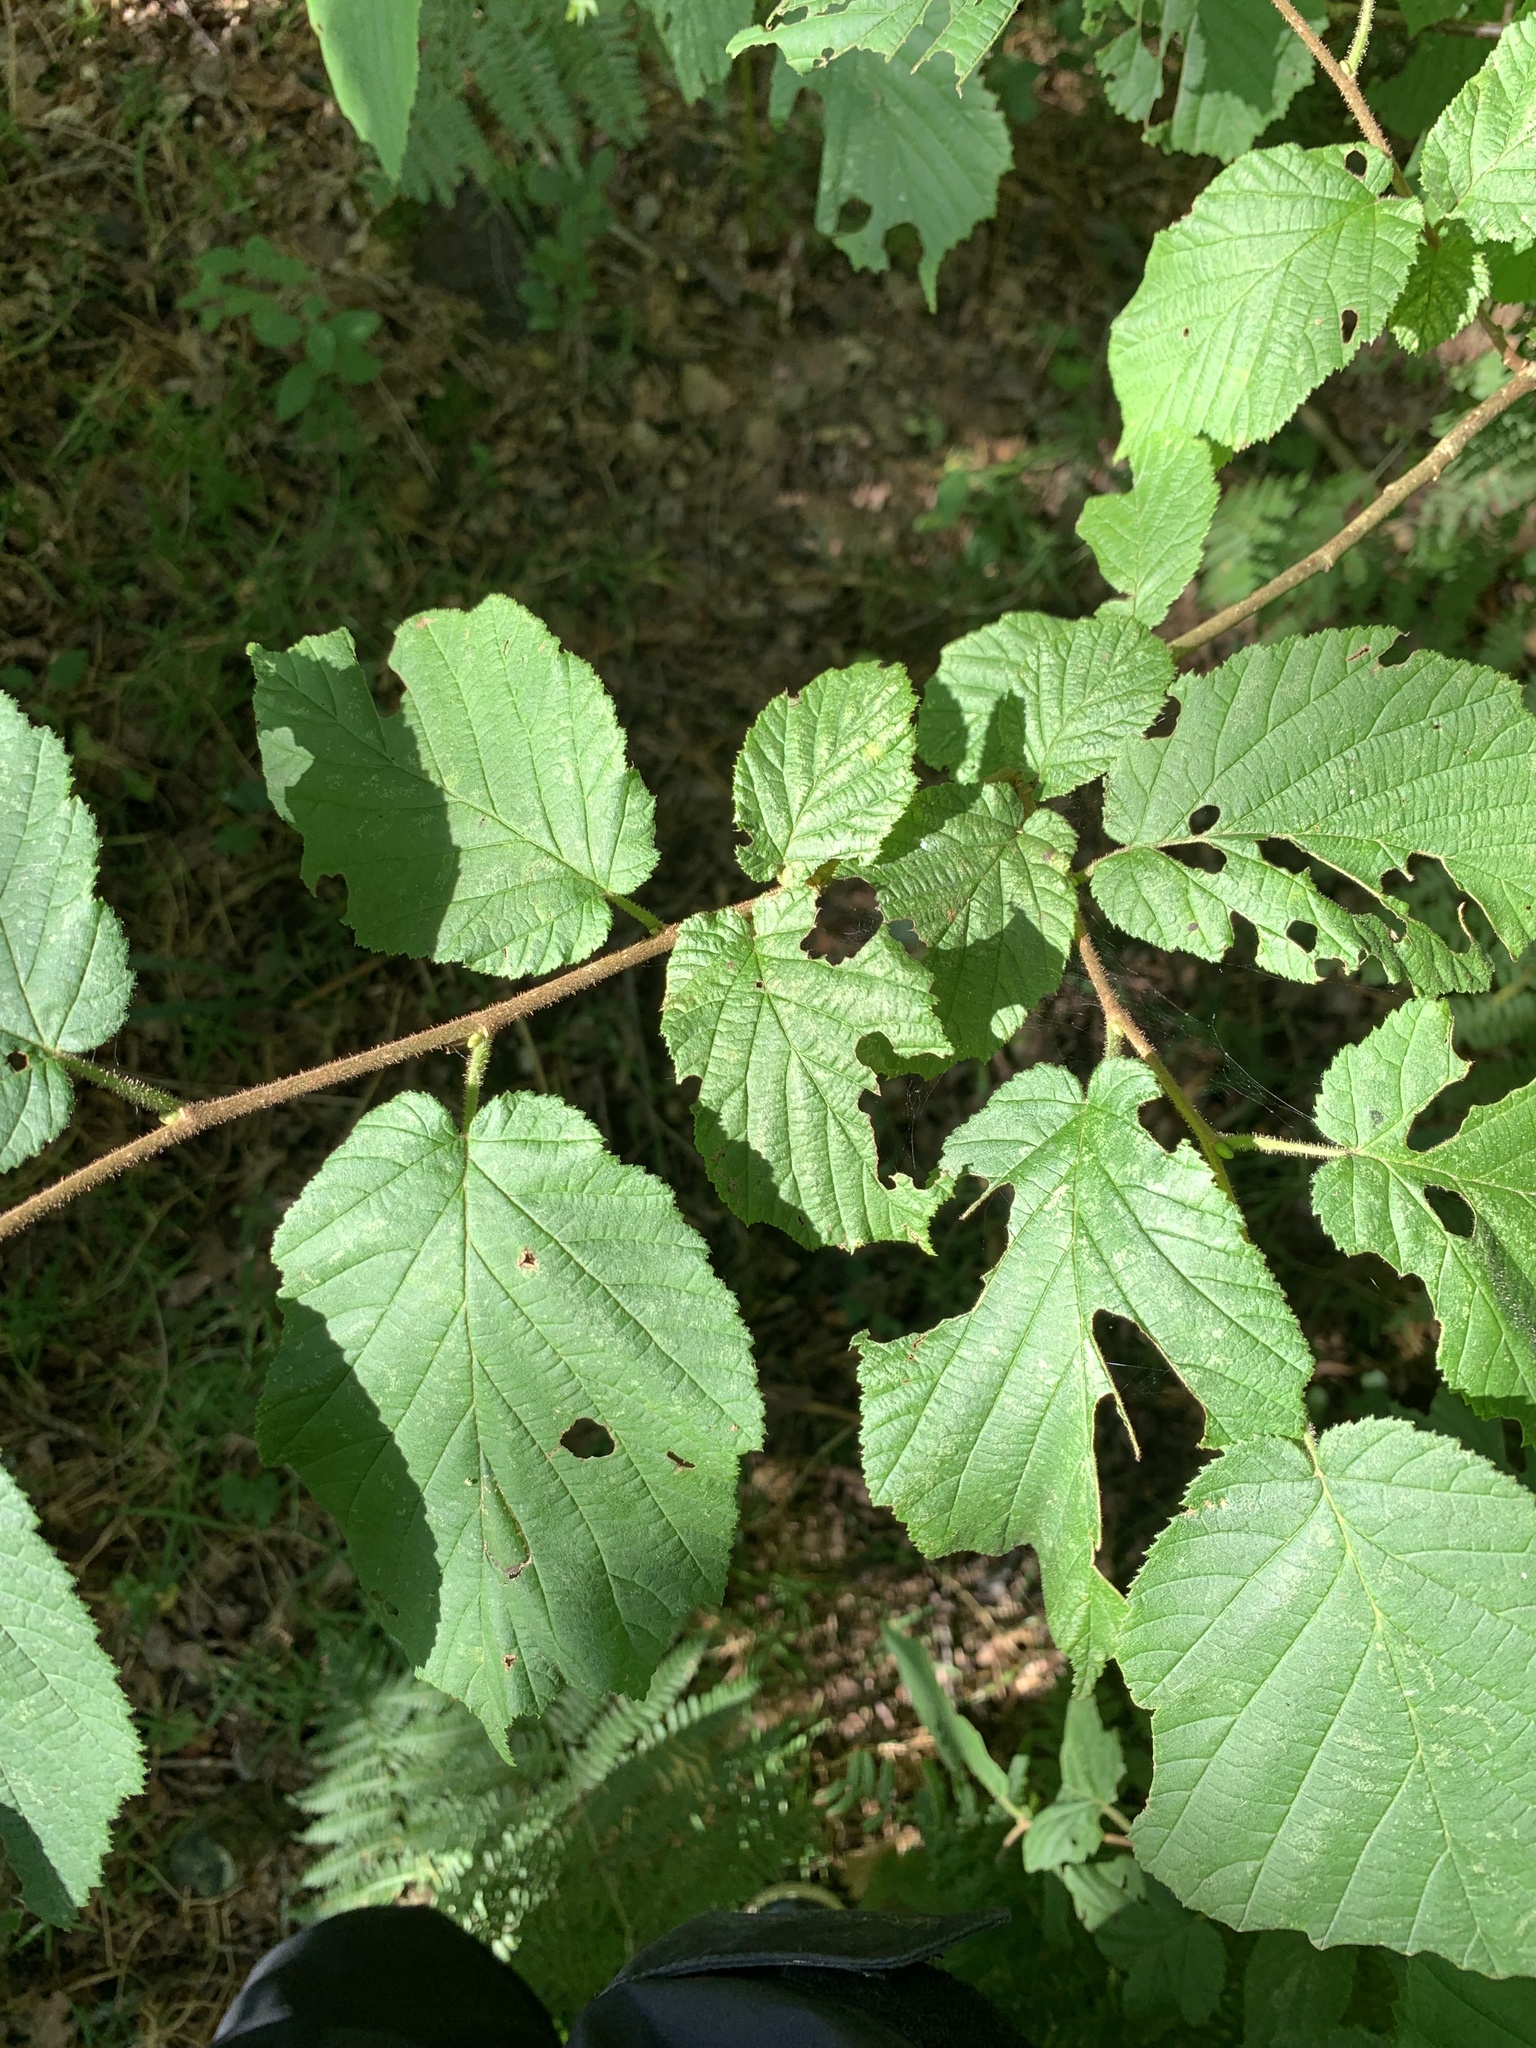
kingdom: Plantae
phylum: Tracheophyta
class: Magnoliopsida
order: Fagales
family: Betulaceae
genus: Corylus
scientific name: Corylus avellana
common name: European hazel
